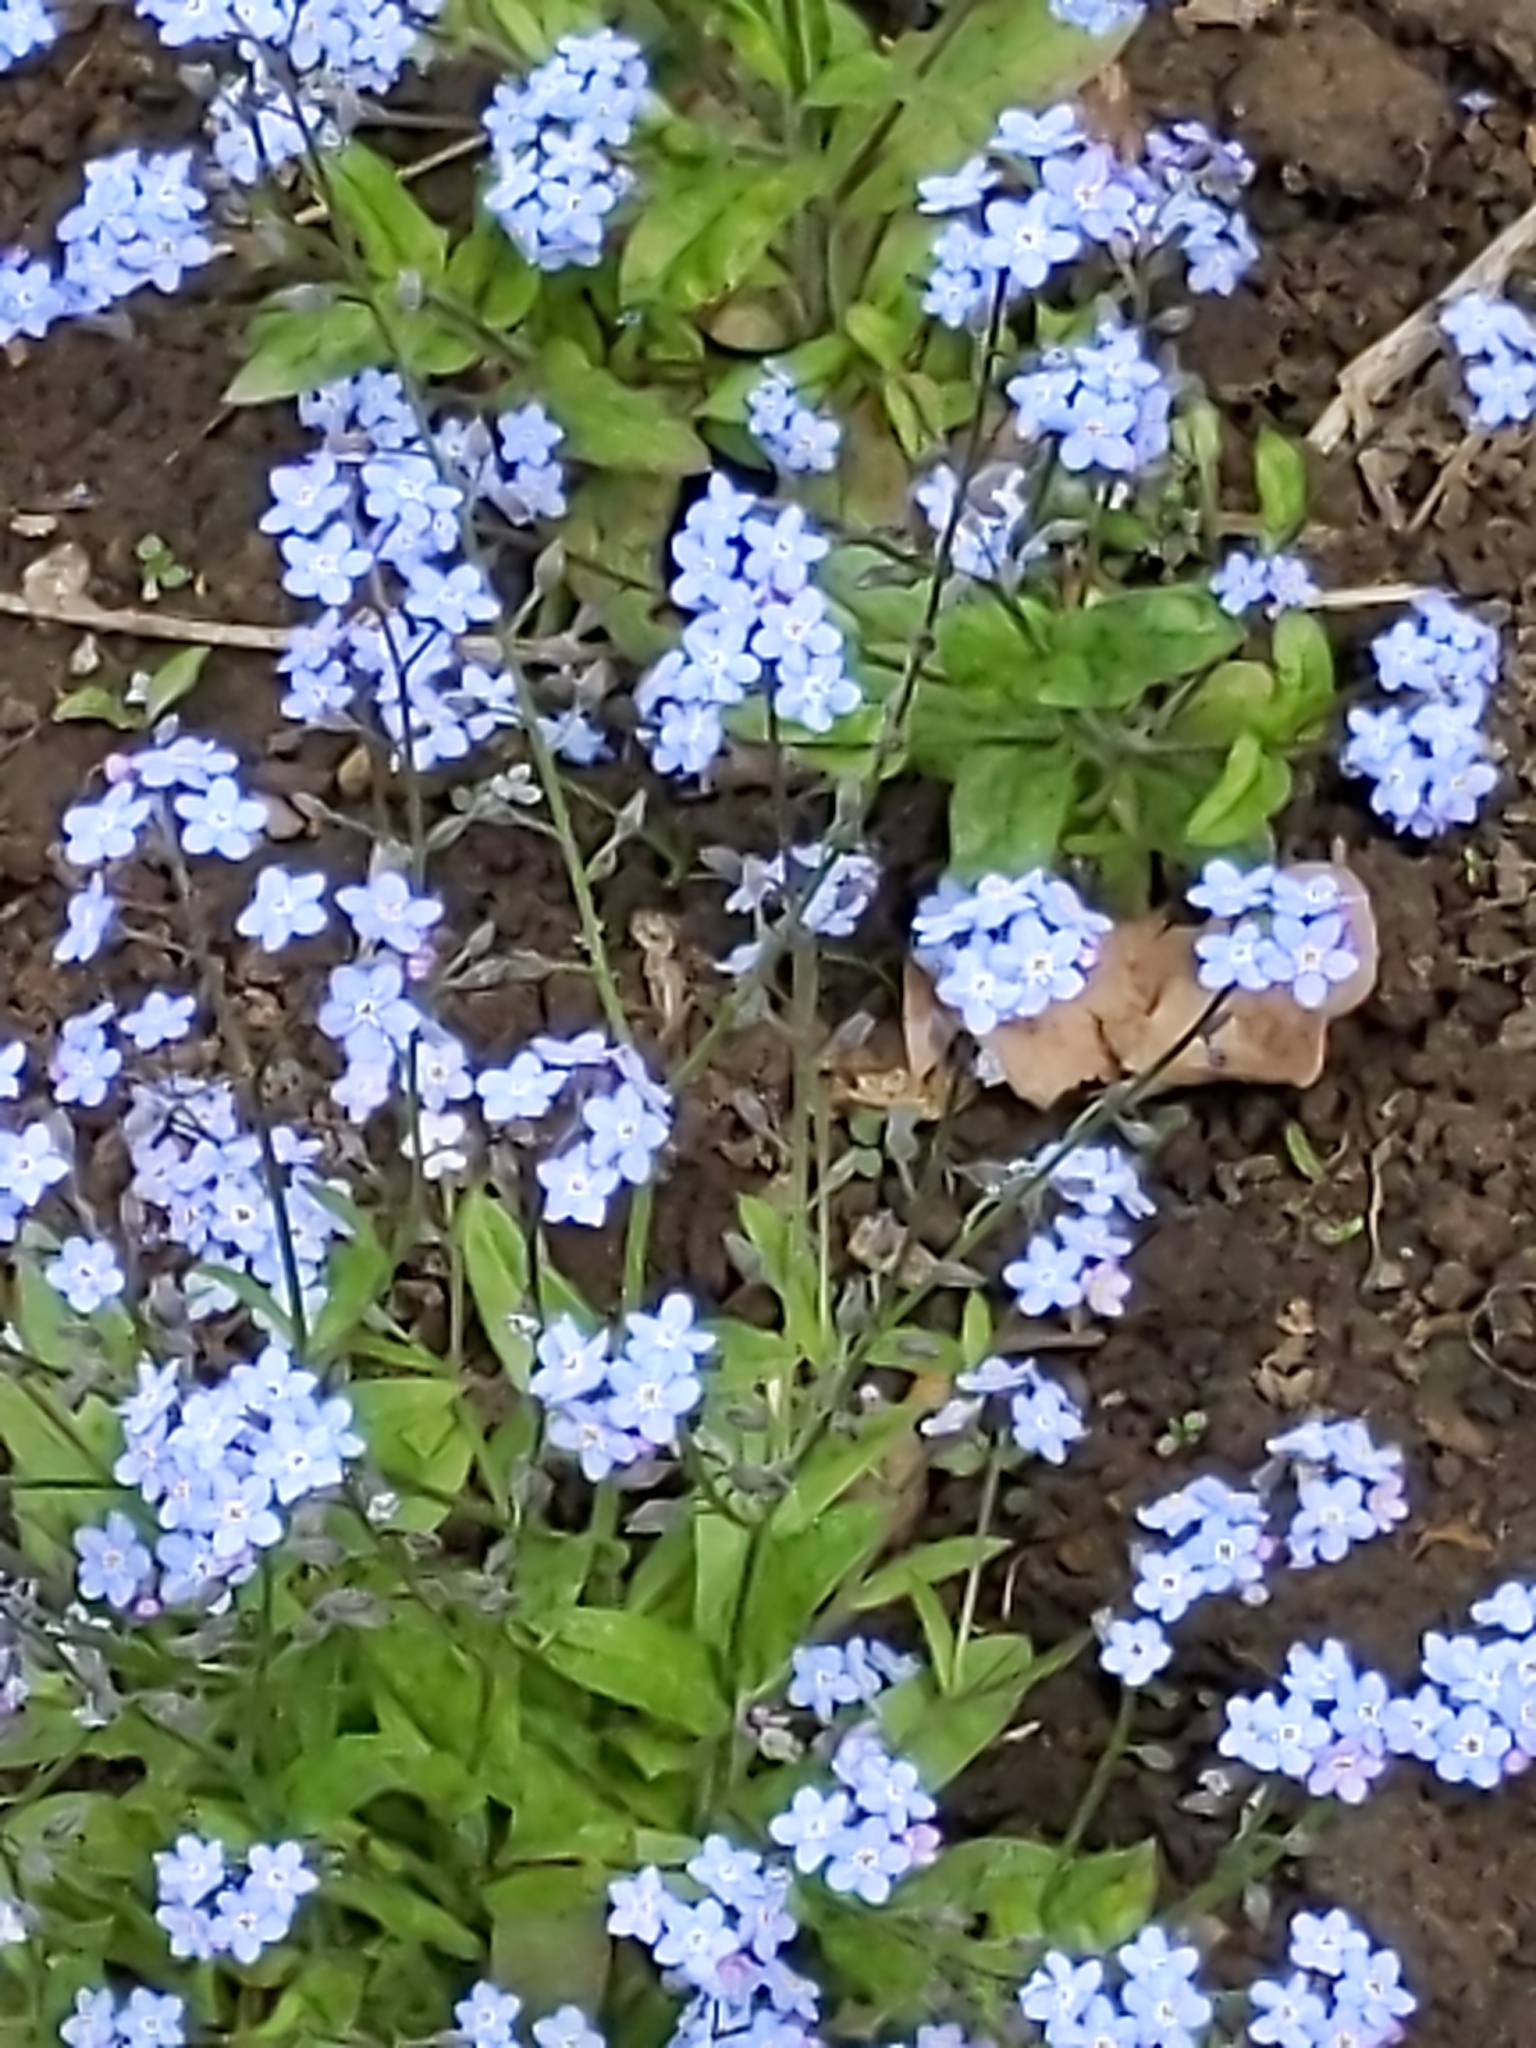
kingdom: Plantae
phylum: Tracheophyta
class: Magnoliopsida
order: Boraginales
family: Boraginaceae
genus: Myosotis
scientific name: Myosotis sylvatica
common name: Wood forget-me-not
